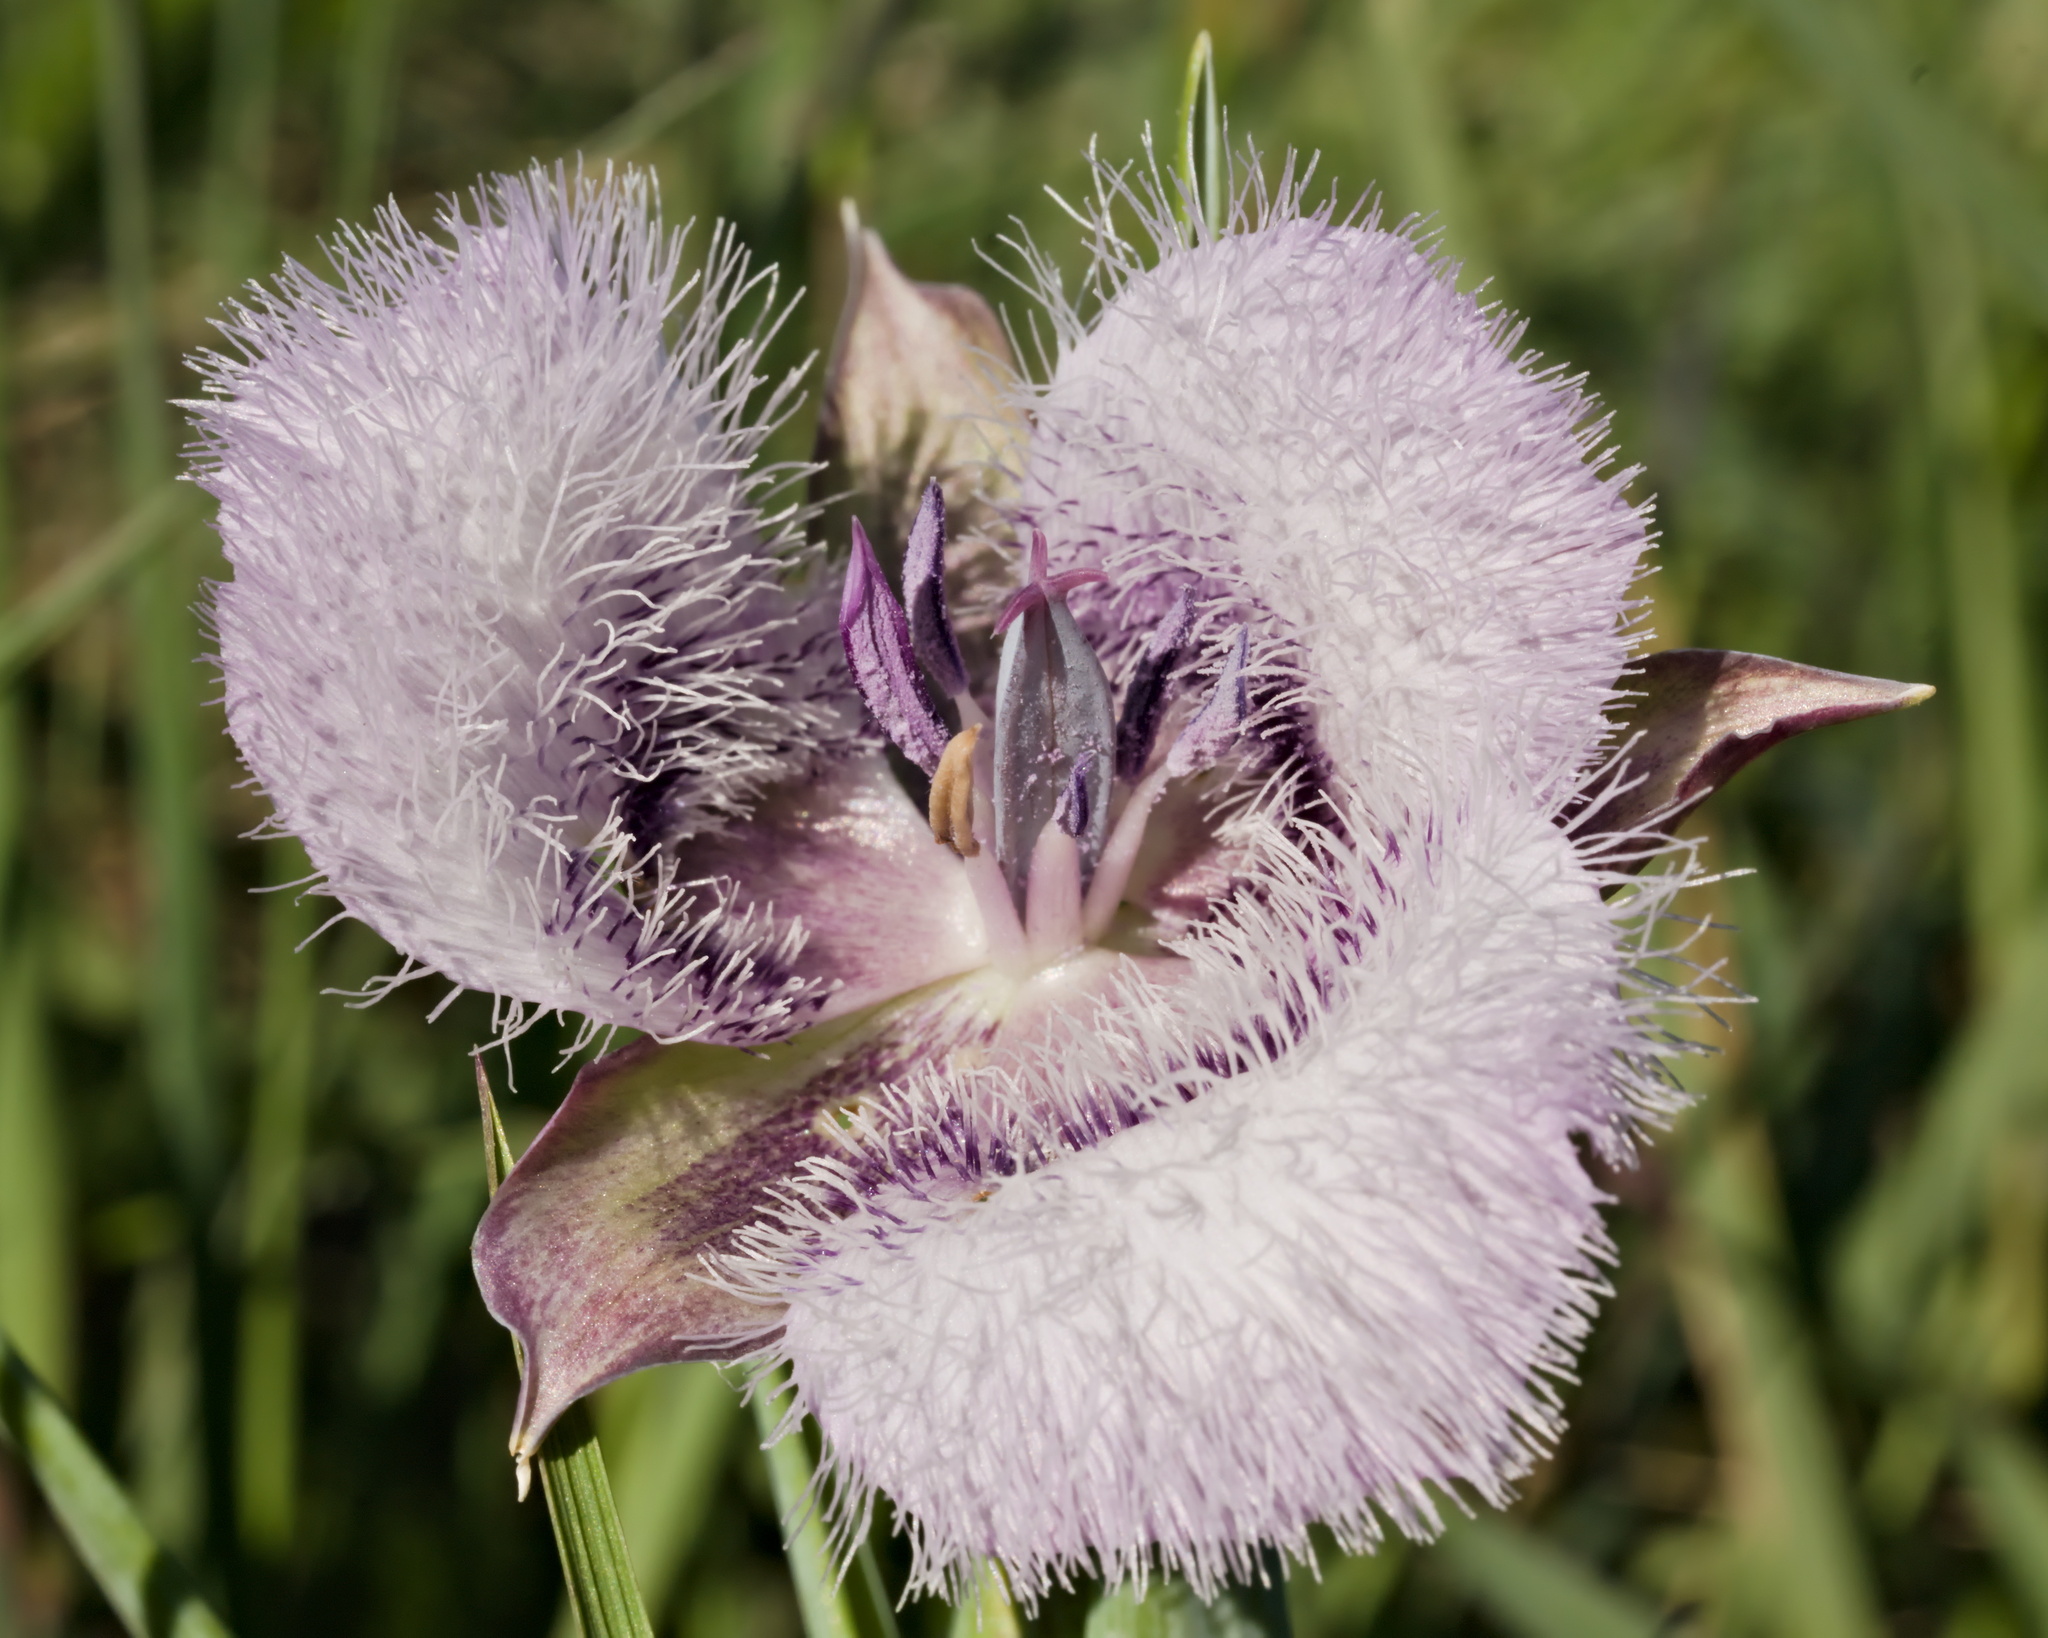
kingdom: Plantae
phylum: Tracheophyta
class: Liliopsida
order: Liliales
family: Liliaceae
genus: Calochortus
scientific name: Calochortus tolmiei
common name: Pussy-ears
